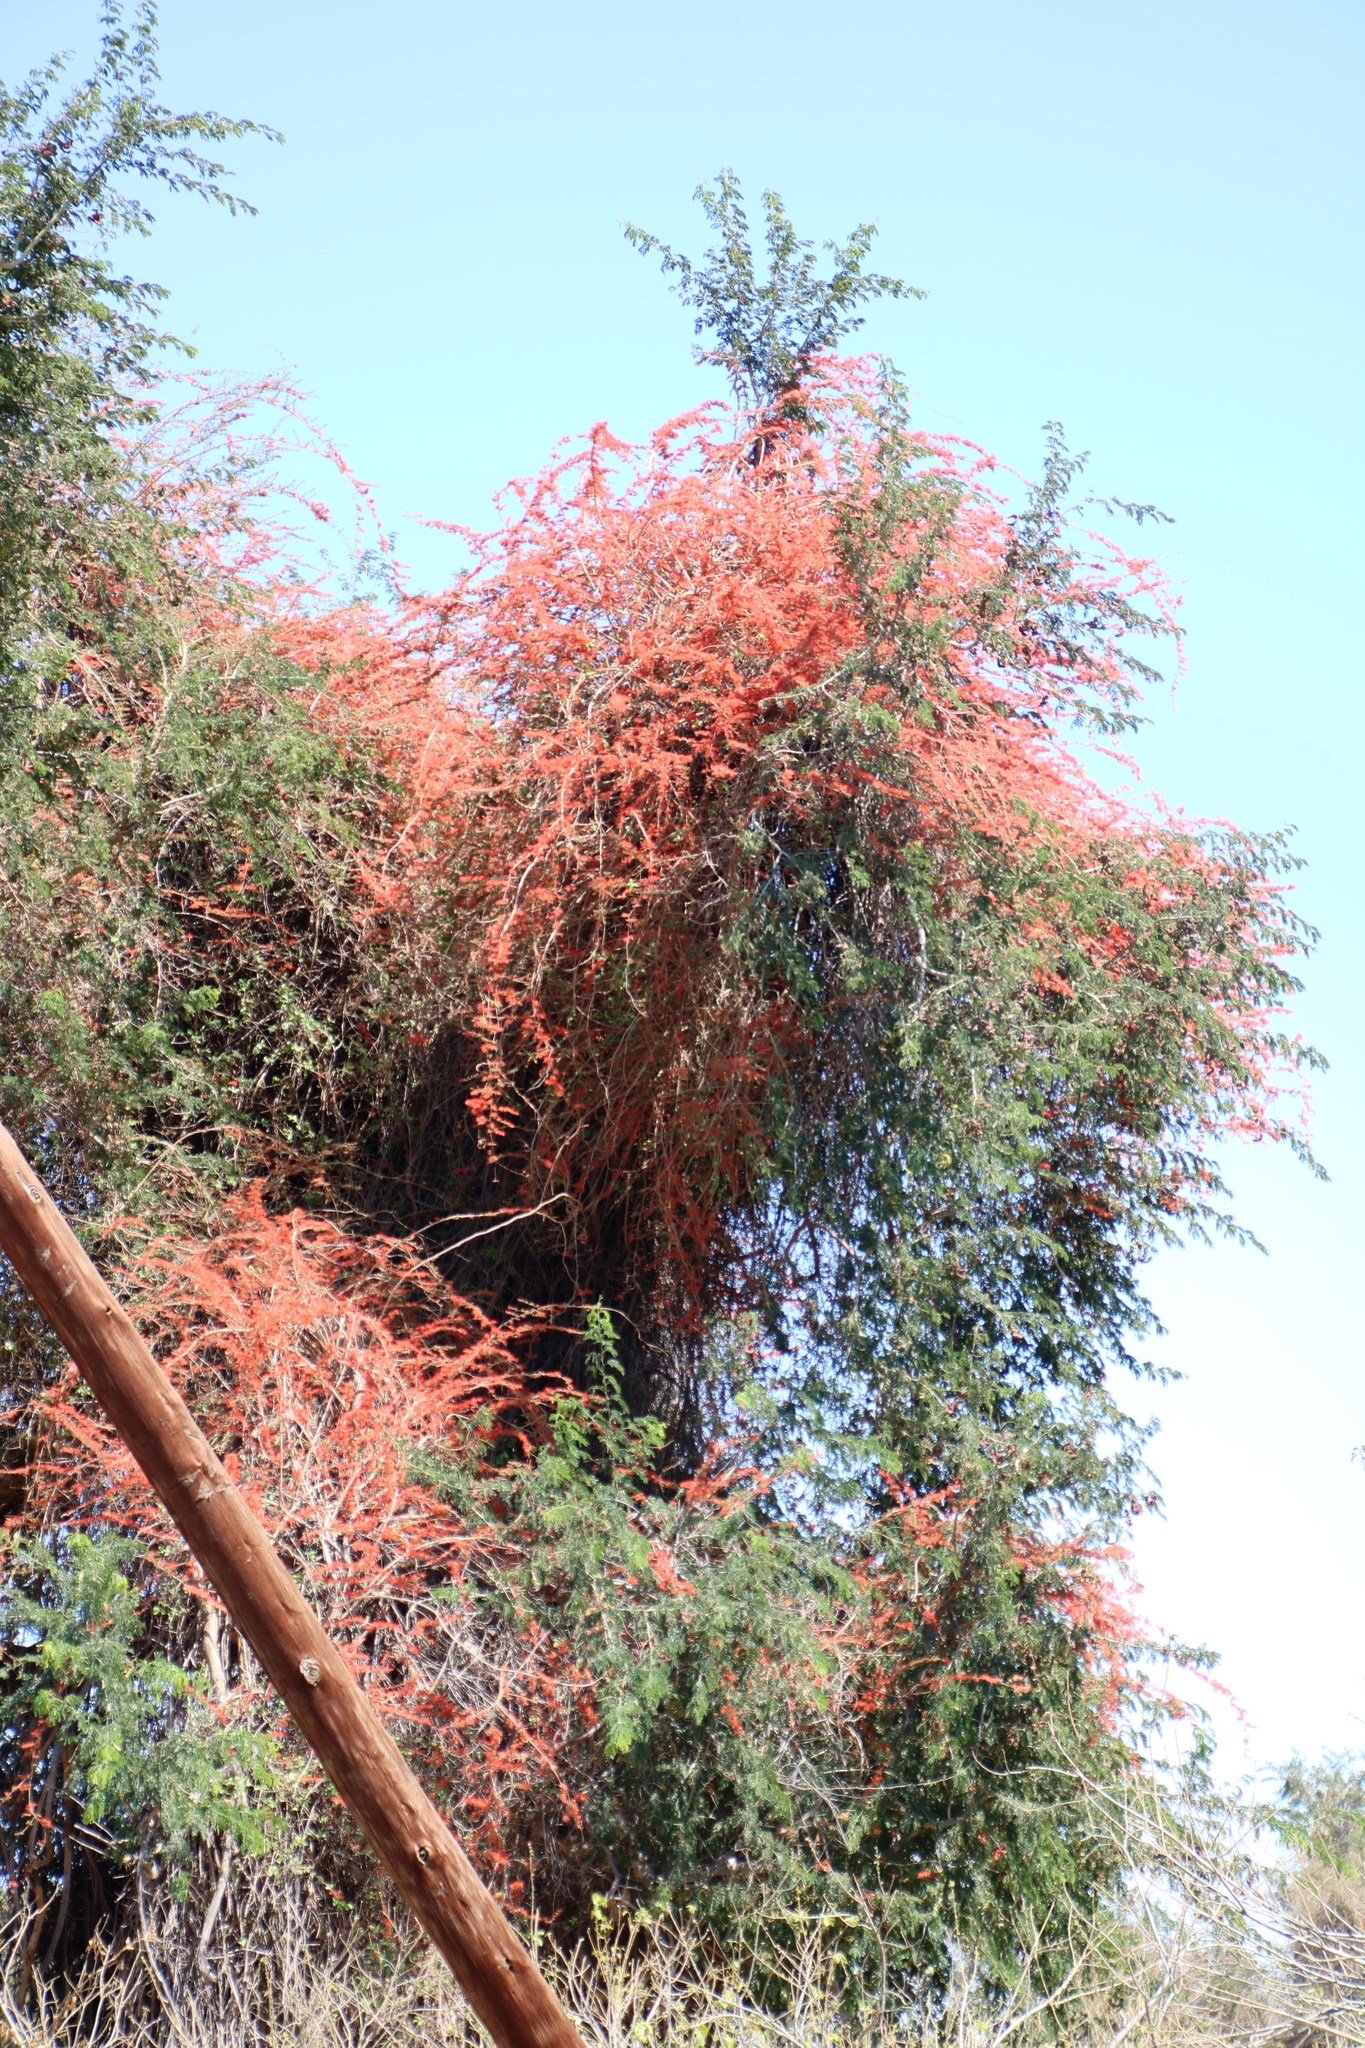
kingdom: Plantae
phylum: Tracheophyta
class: Magnoliopsida
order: Myrtales
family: Combretaceae
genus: Combretum
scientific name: Combretum microphyllum
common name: Burningbush
